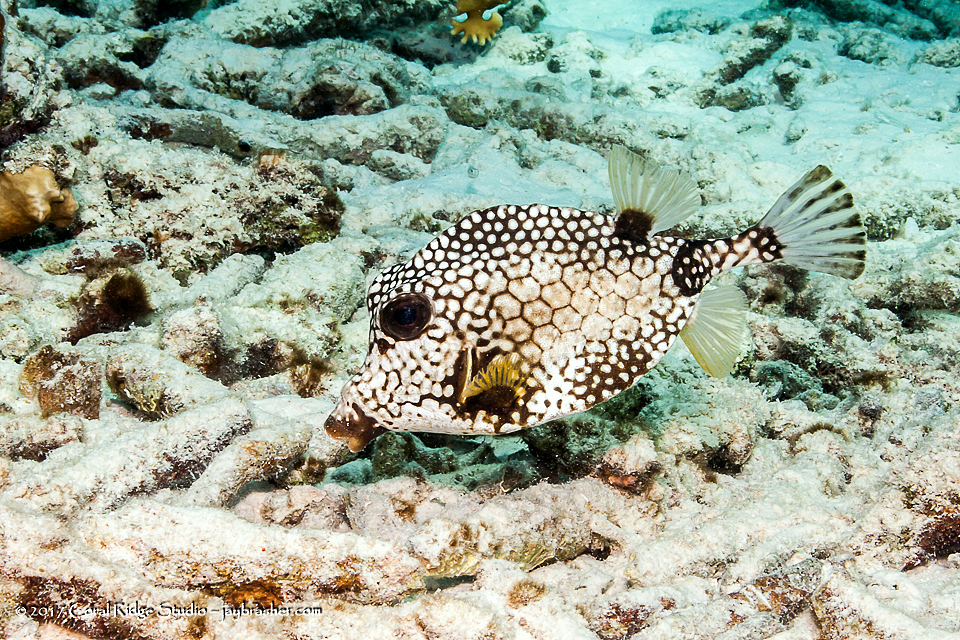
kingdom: Animalia
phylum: Chordata
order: Tetraodontiformes
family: Ostraciidae
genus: Lactophrys
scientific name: Lactophrys triqueter
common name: Smooth trunkfish
